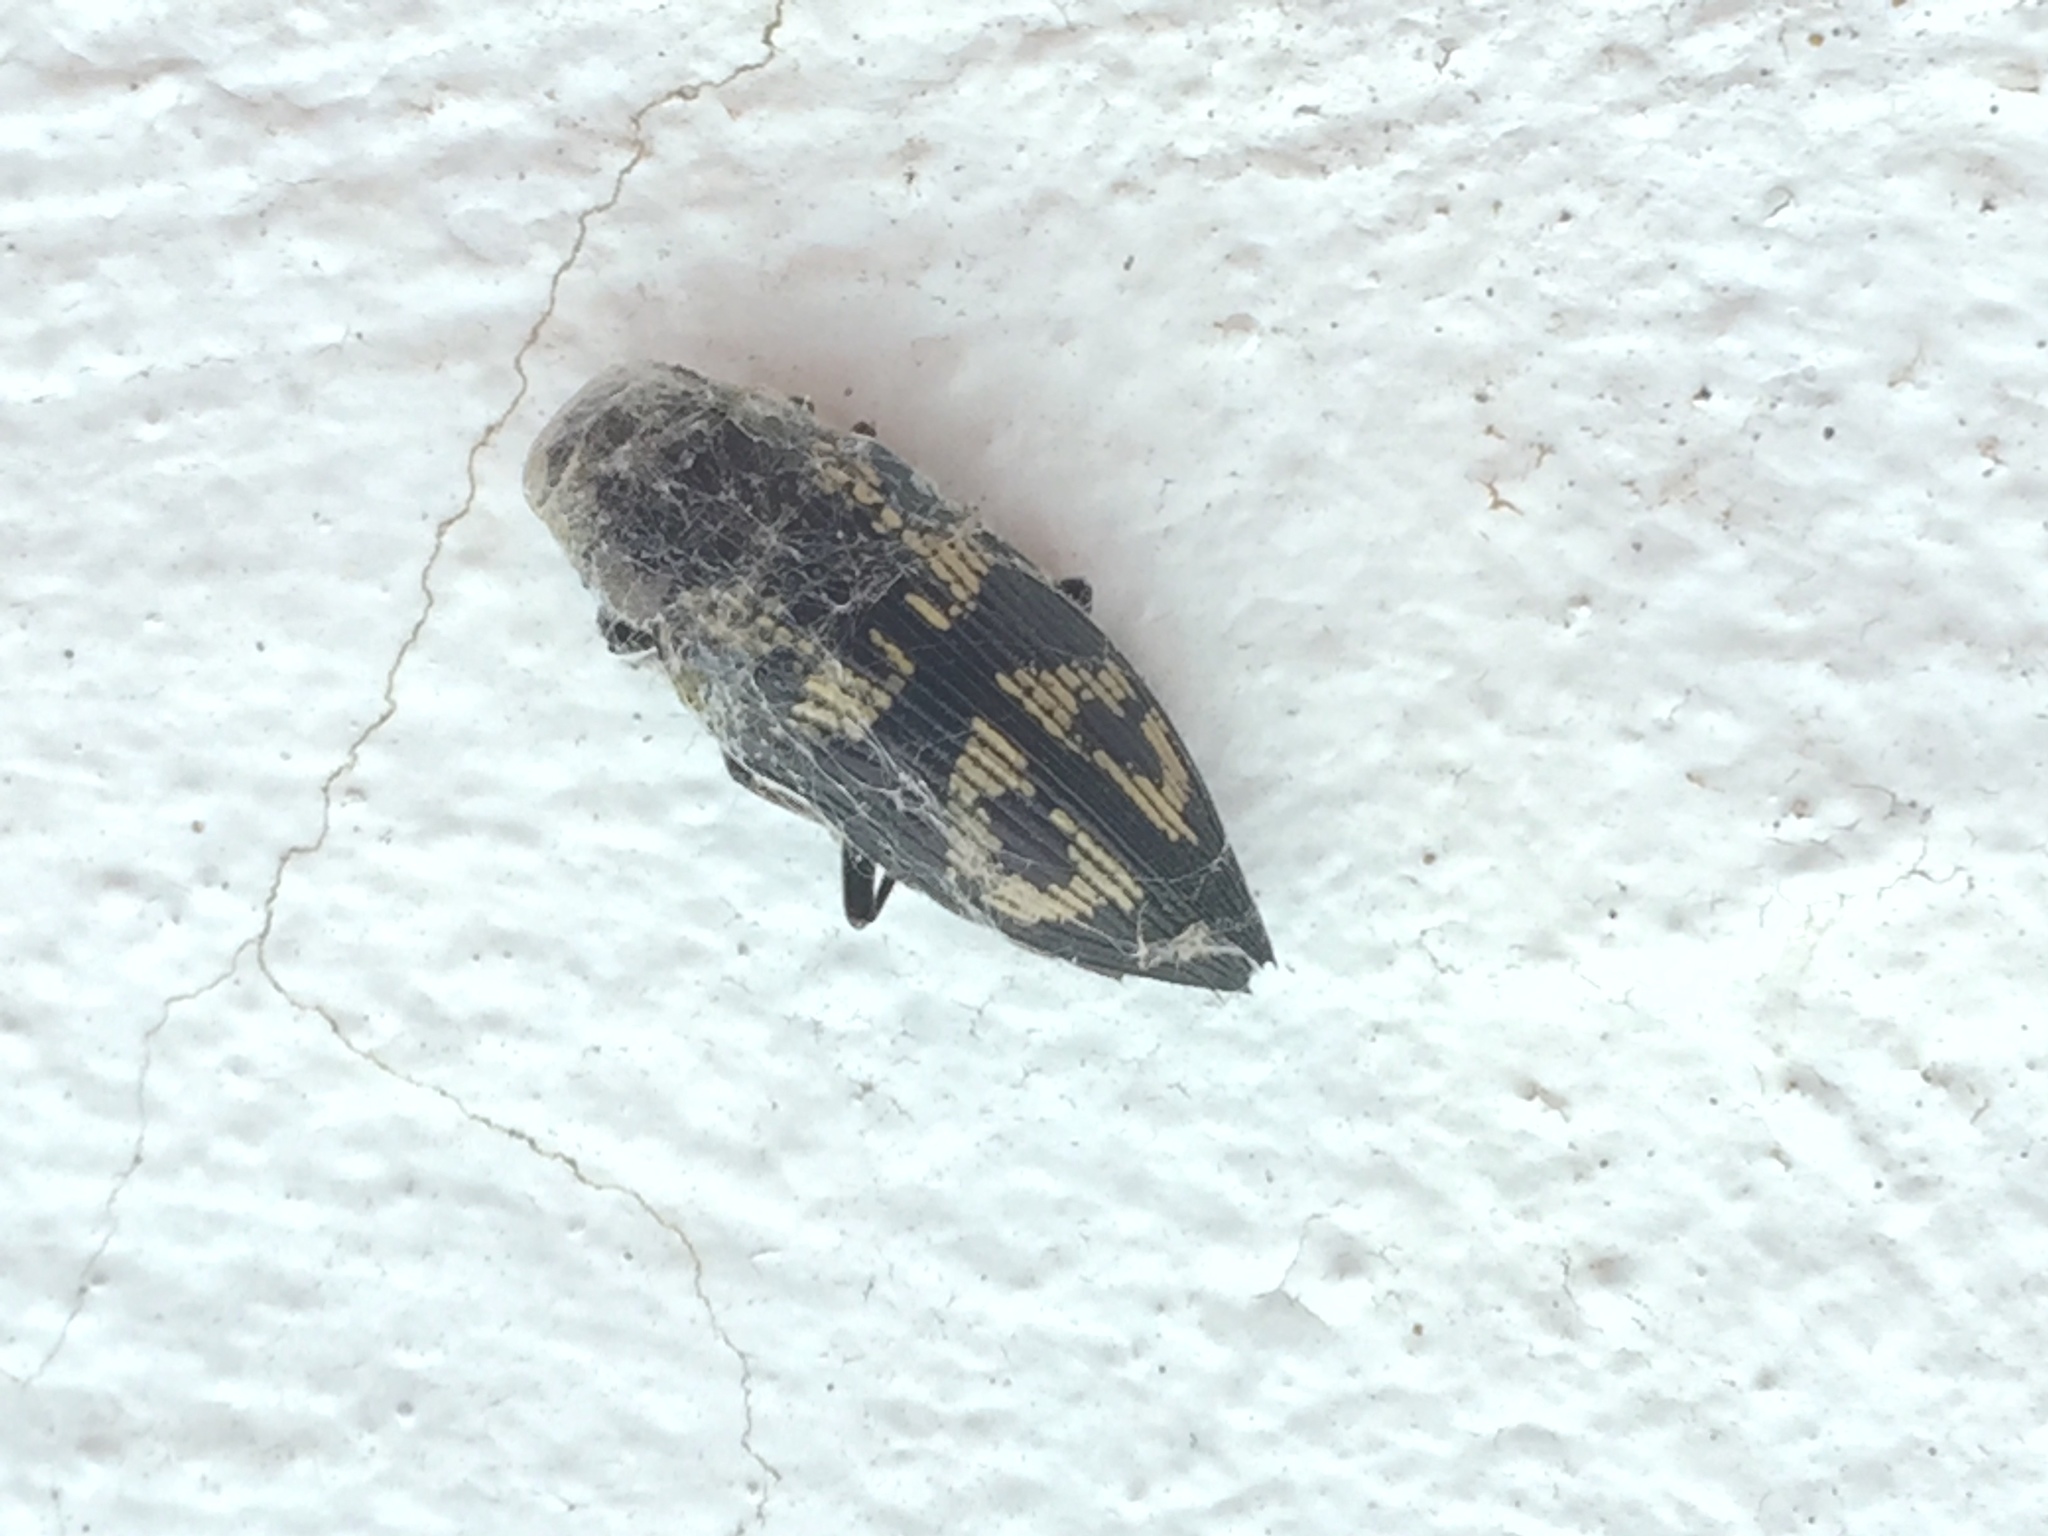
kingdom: Animalia
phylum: Arthropoda
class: Insecta
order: Coleoptera
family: Buprestidae
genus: Buprestis
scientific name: Buprestis bertheloti
